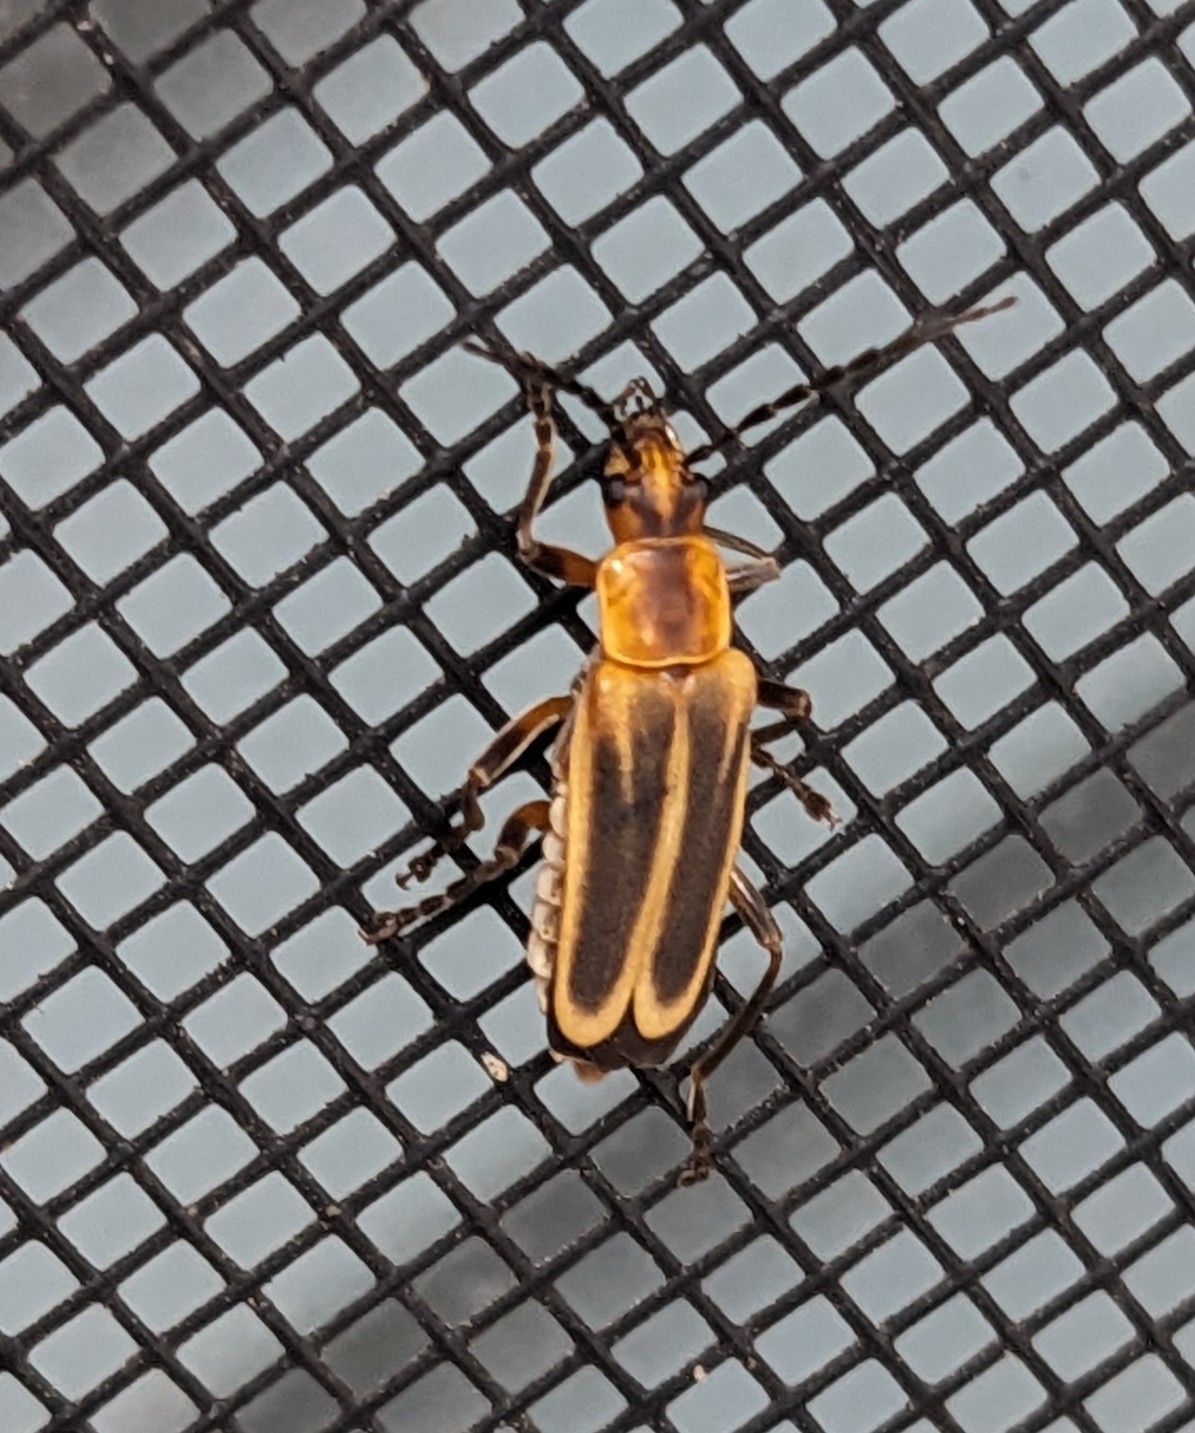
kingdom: Animalia
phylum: Arthropoda
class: Insecta
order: Coleoptera
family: Cantharidae
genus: Chauliognathus
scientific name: Chauliognathus marginatus
